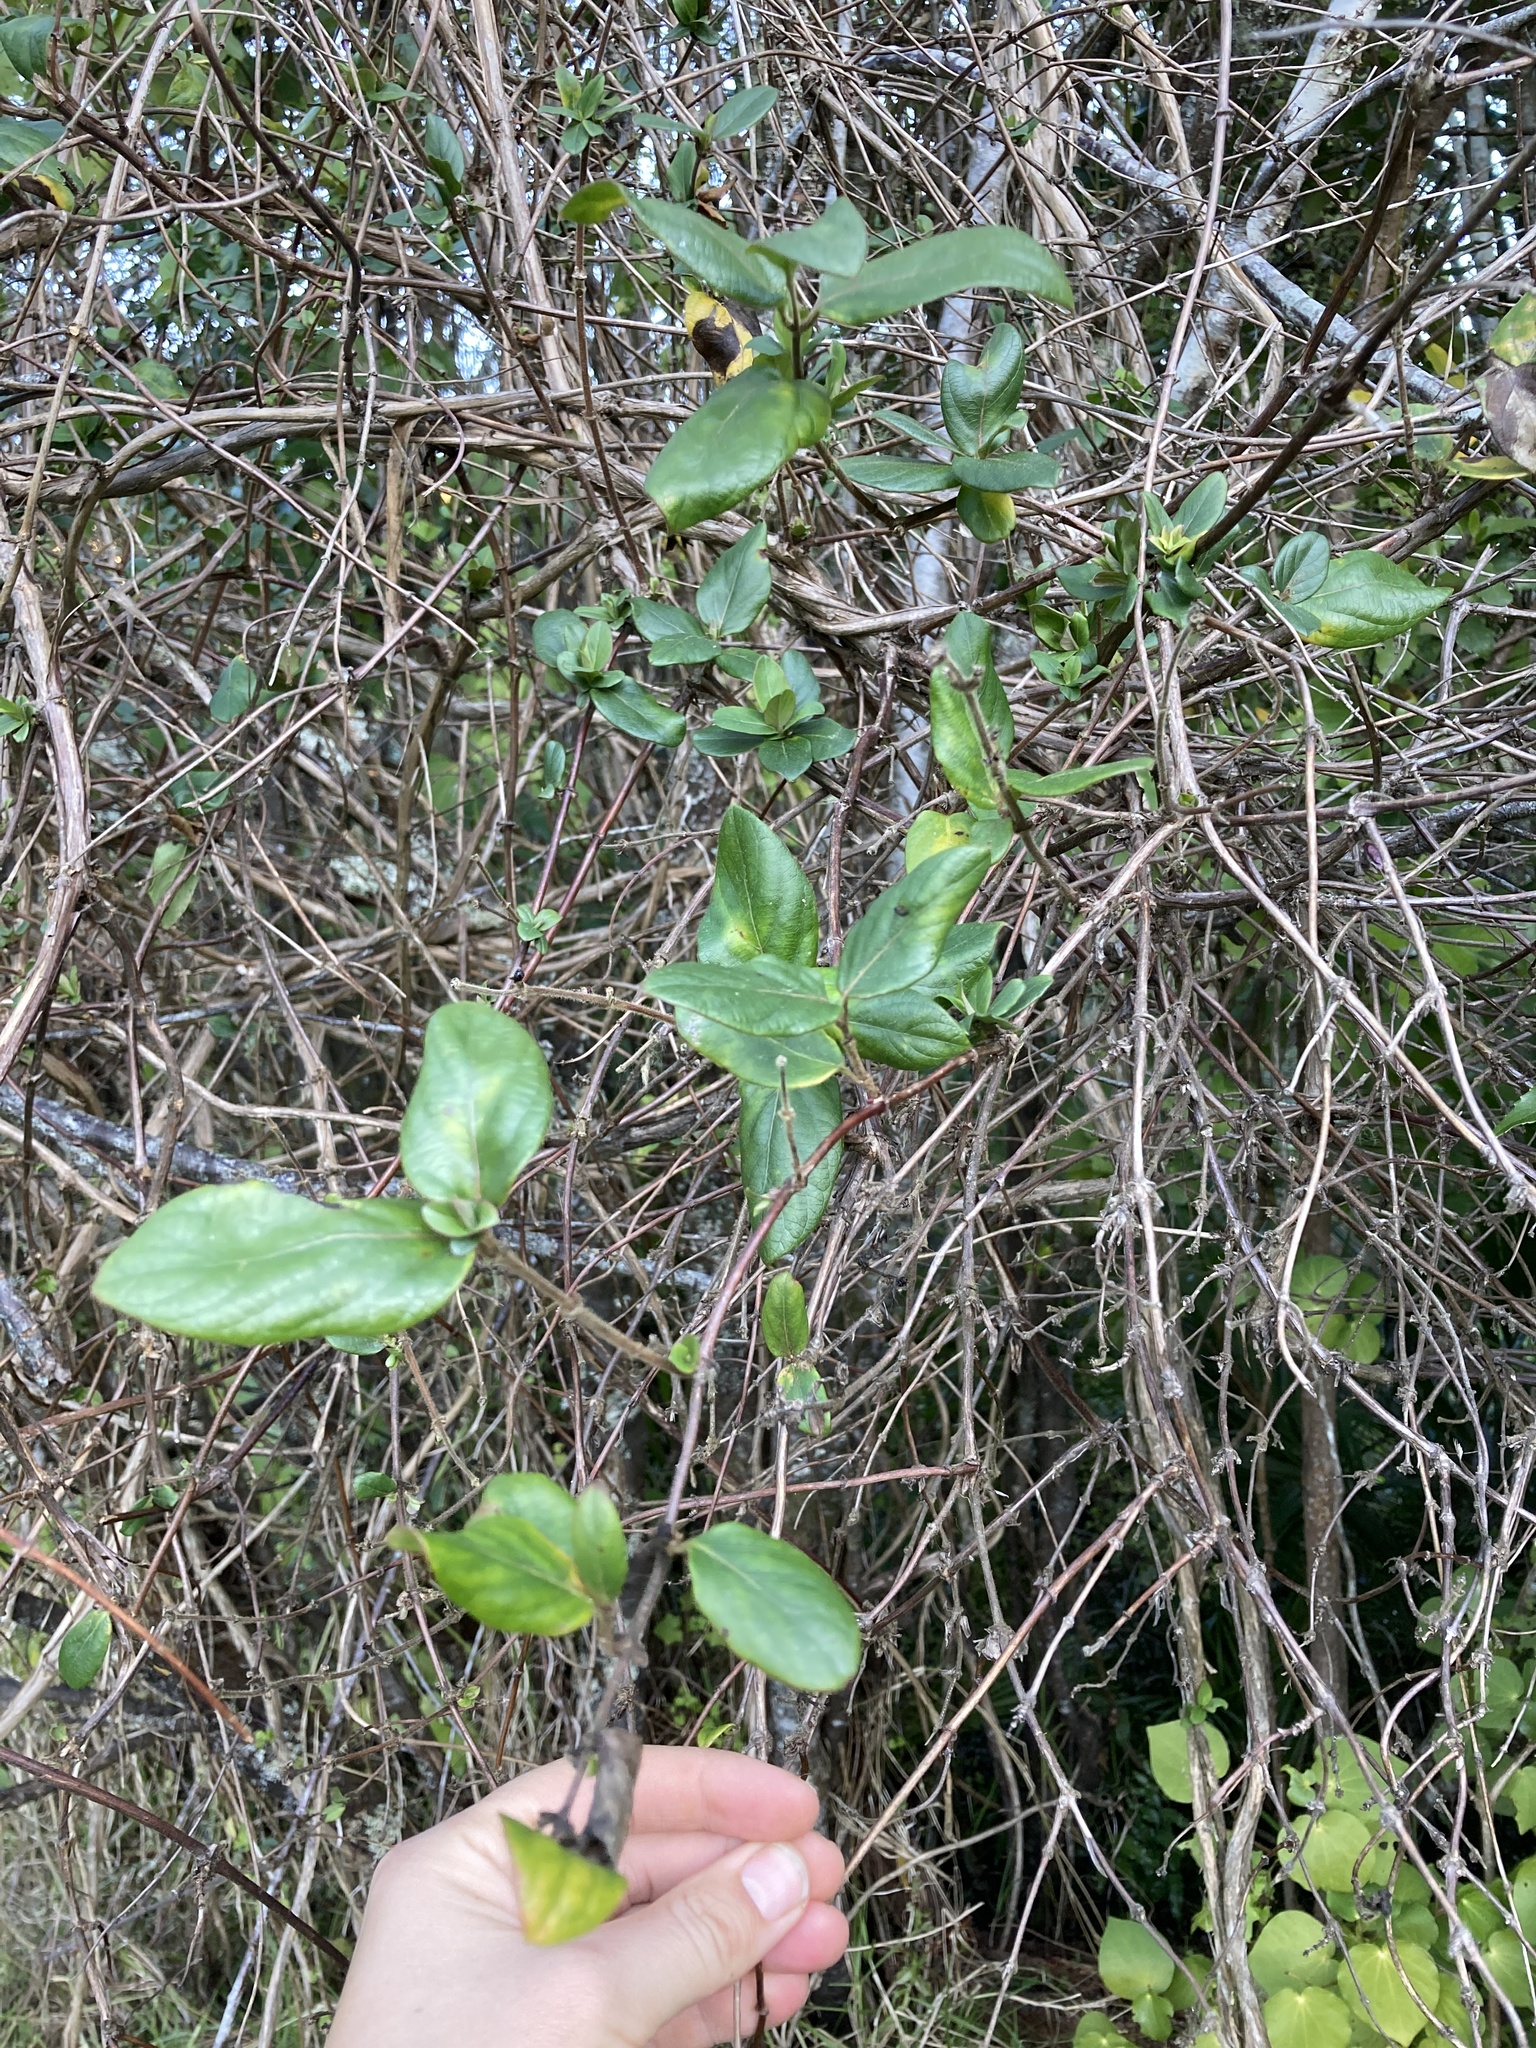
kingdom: Plantae
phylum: Tracheophyta
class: Magnoliopsida
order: Dipsacales
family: Caprifoliaceae
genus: Lonicera
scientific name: Lonicera japonica
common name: Japanese honeysuckle
